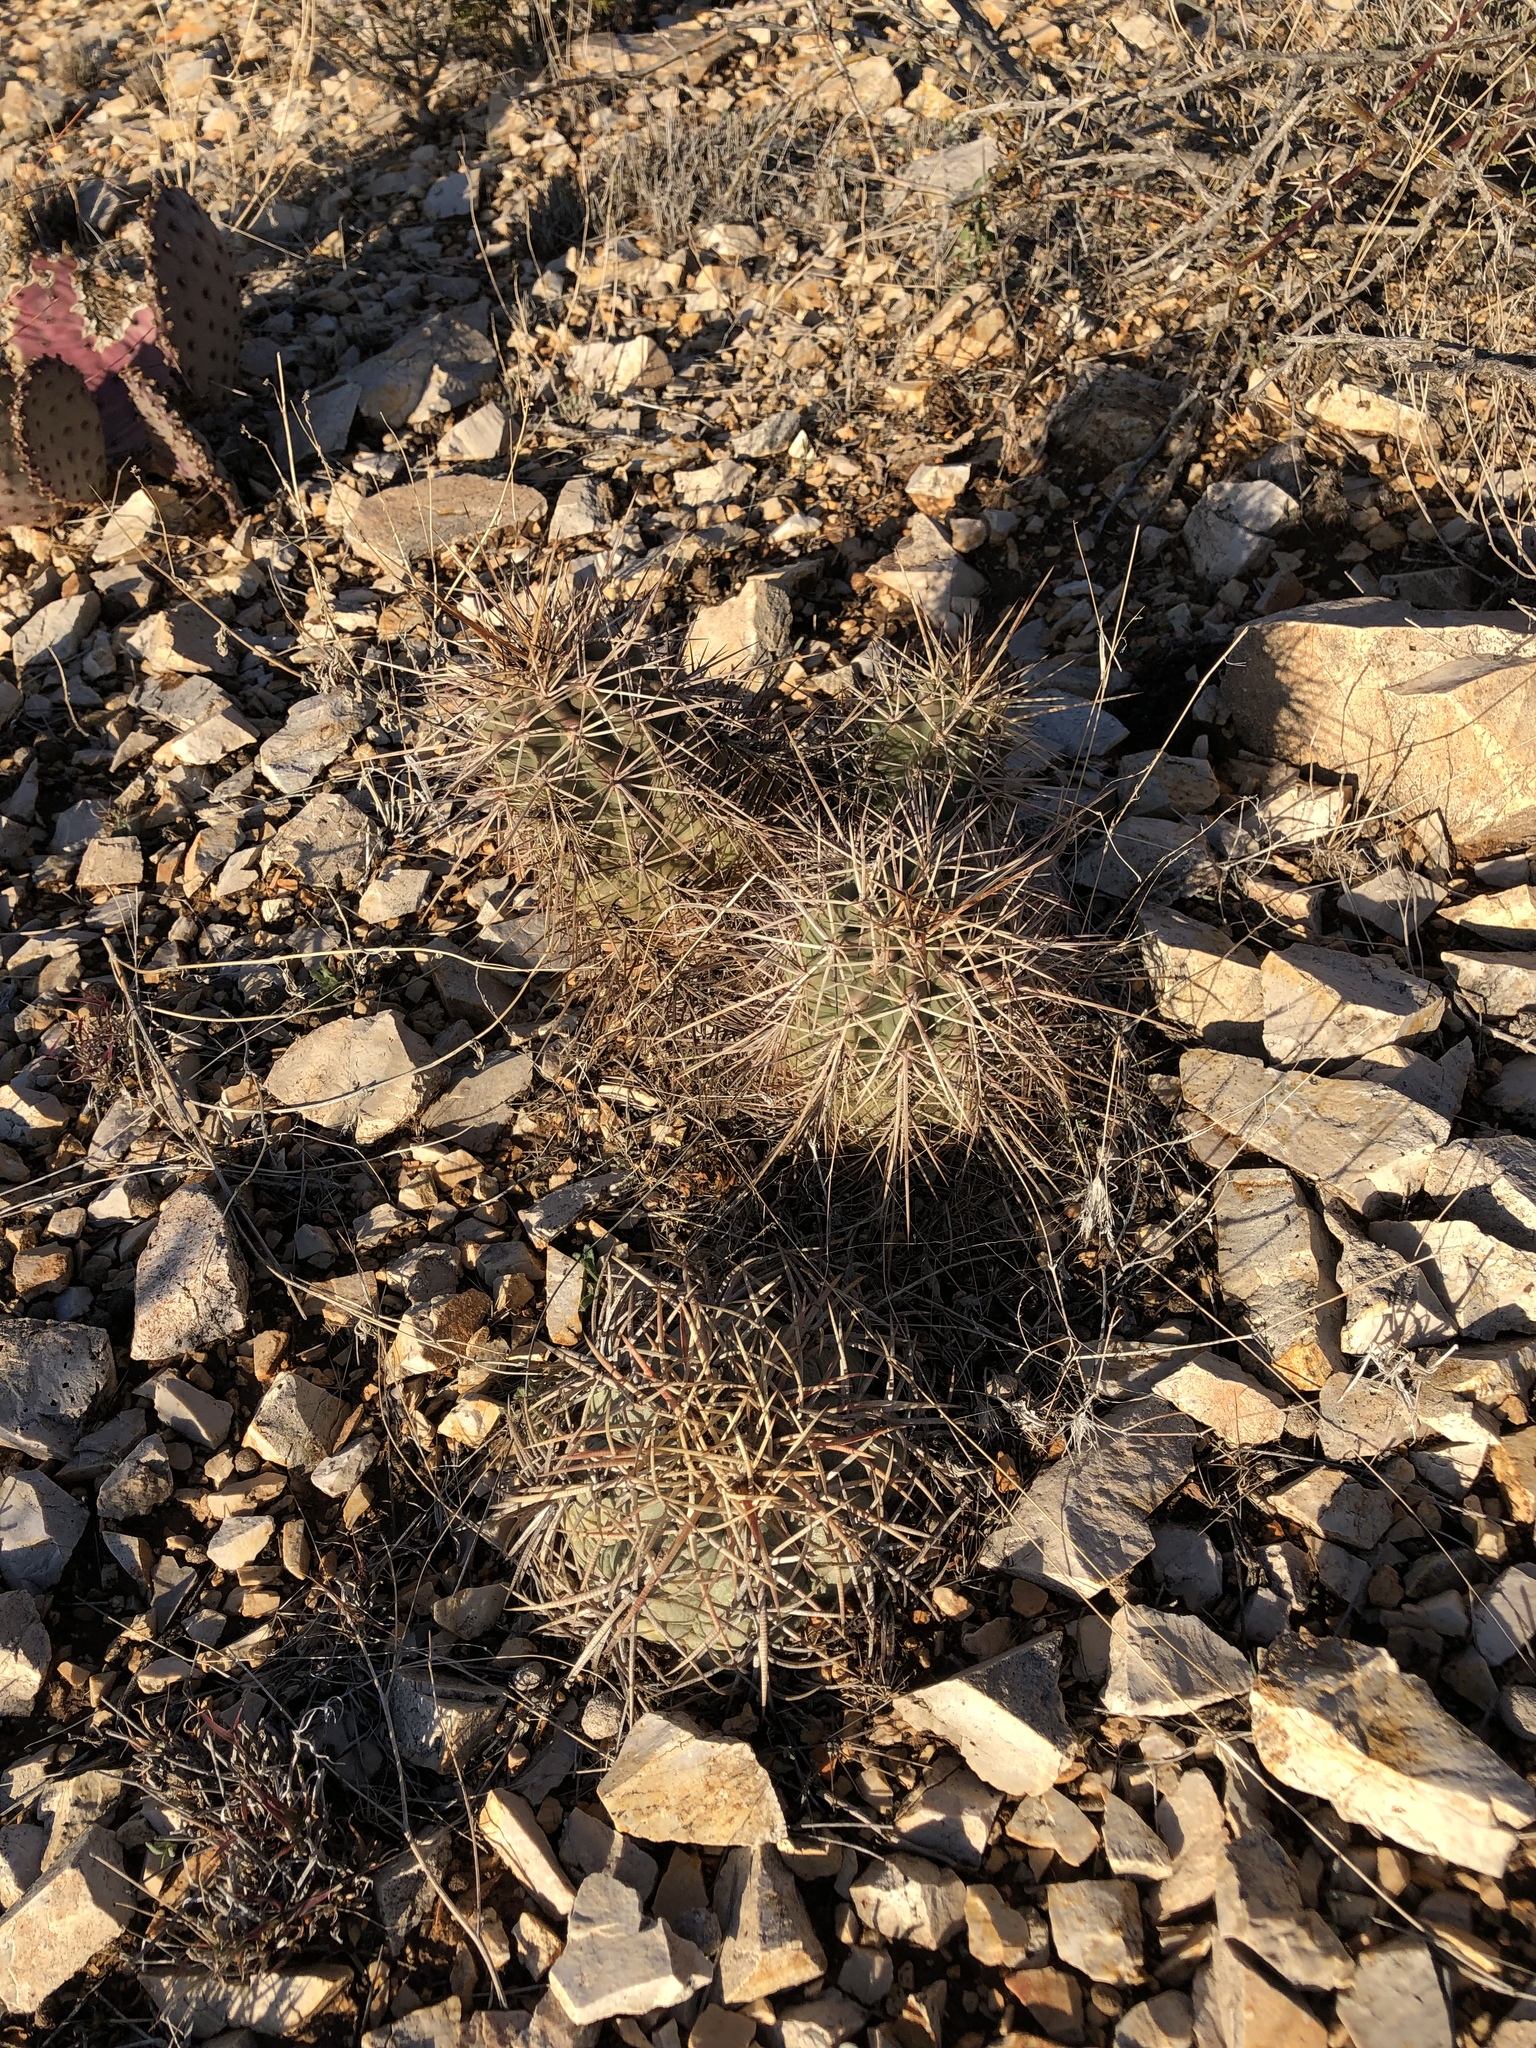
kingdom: Plantae
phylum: Tracheophyta
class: Magnoliopsida
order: Caryophyllales
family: Cactaceae
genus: Echinocereus
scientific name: Echinocereus coccineus
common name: Scarlet hedgehog cactus
